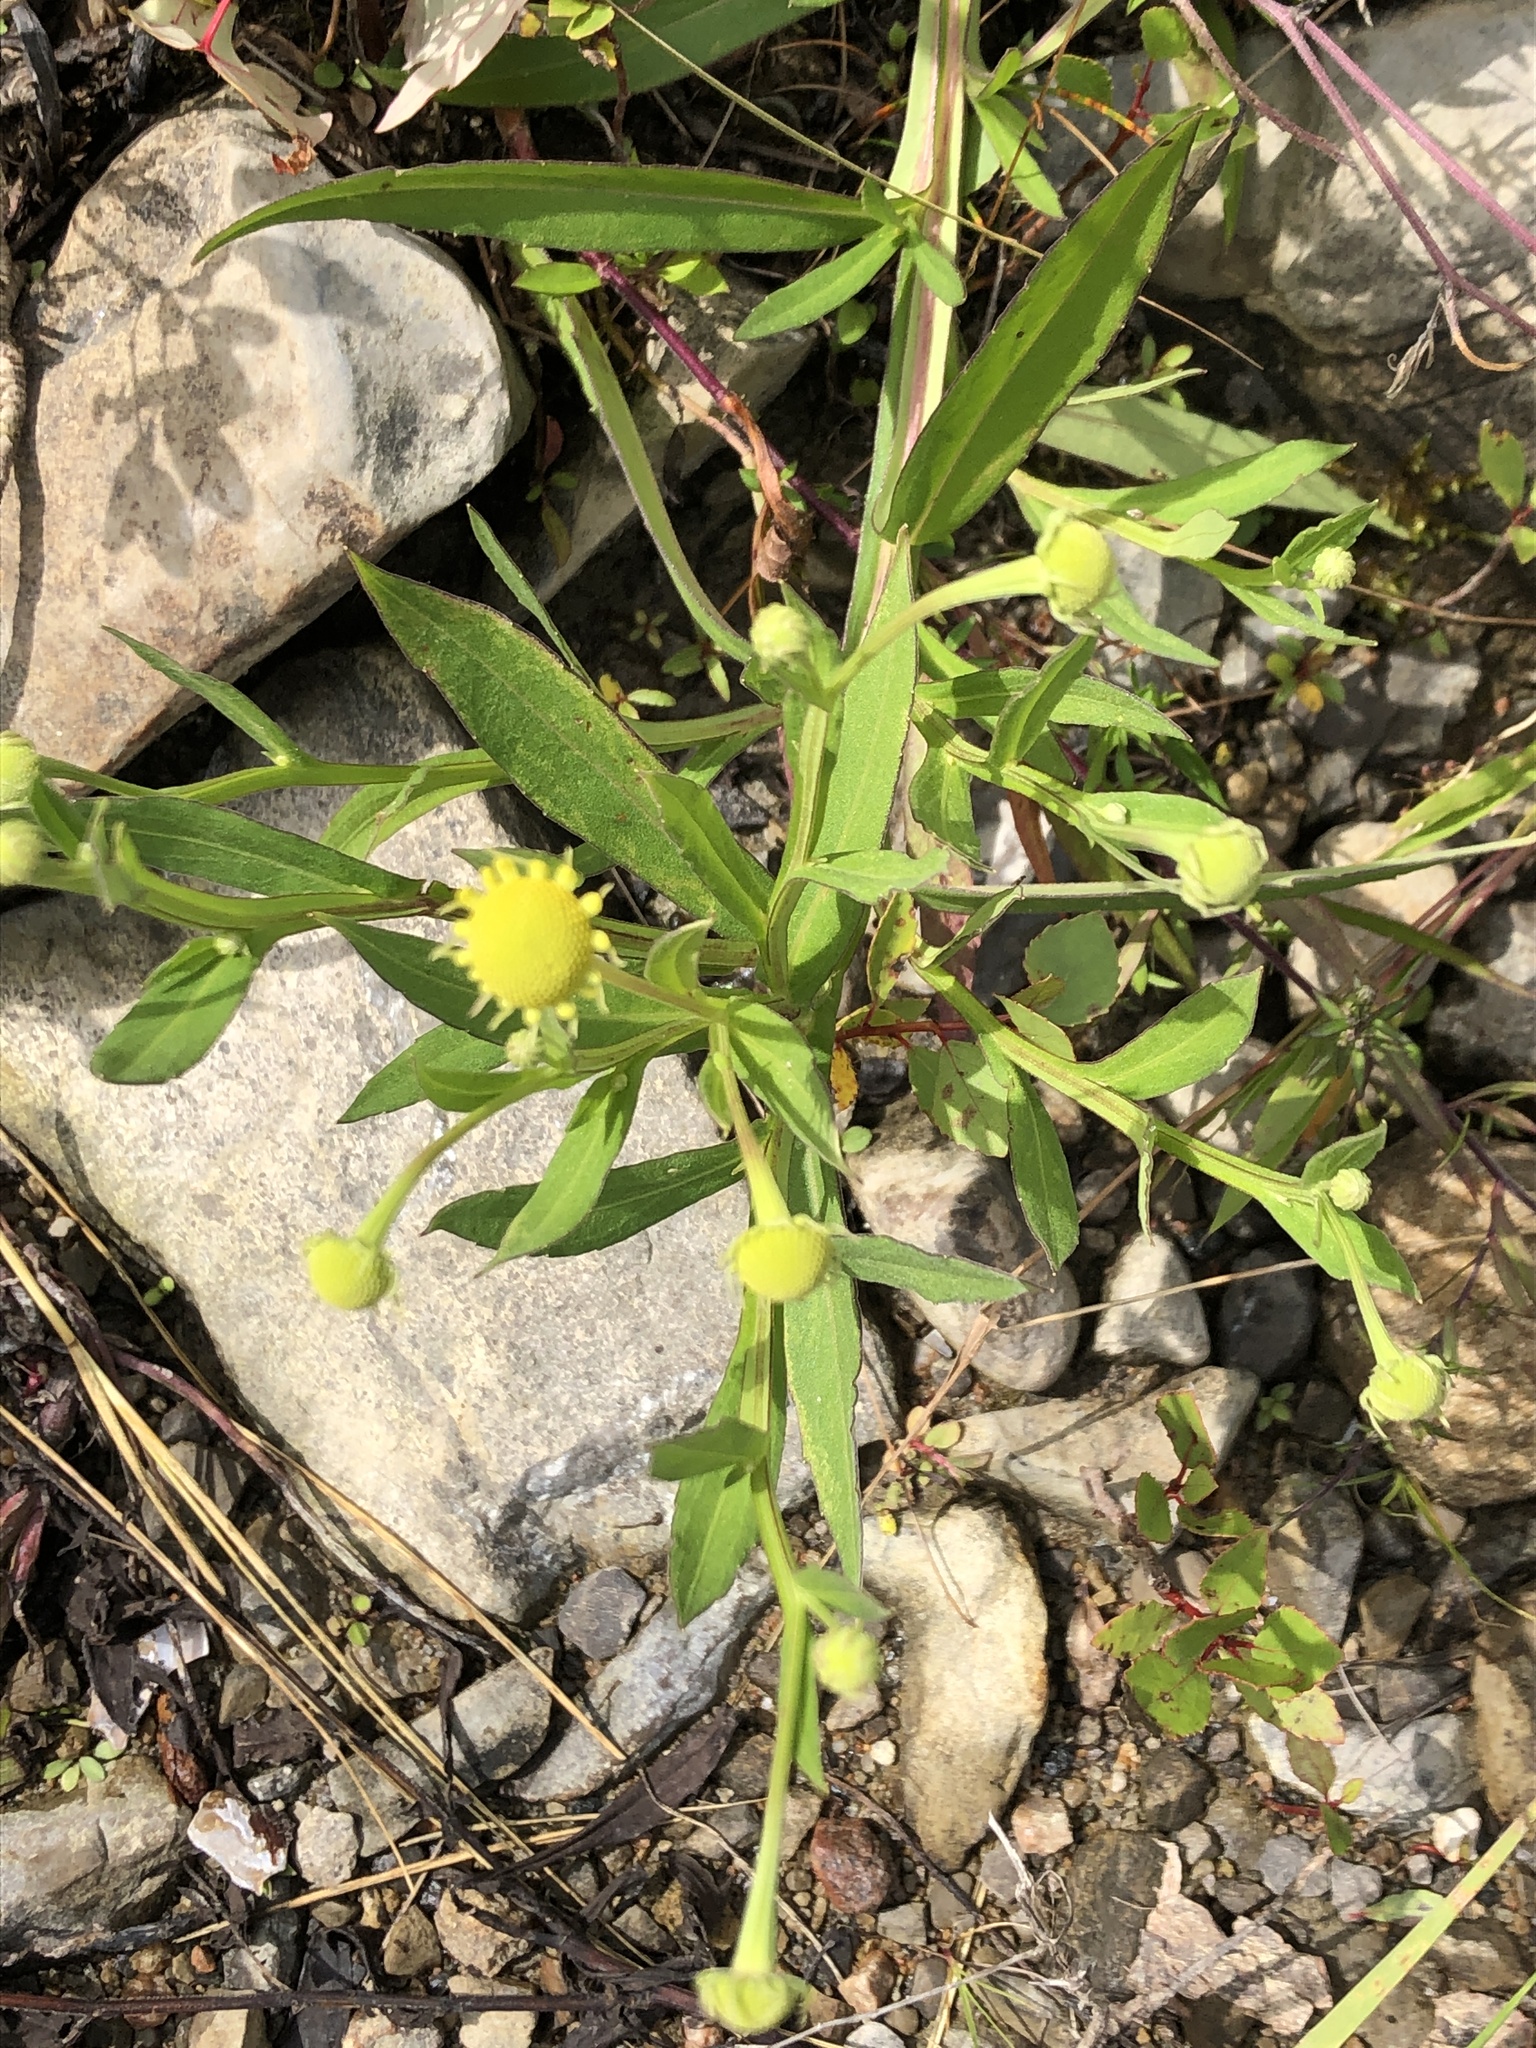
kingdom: Plantae
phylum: Tracheophyta
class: Magnoliopsida
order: Asterales
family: Asteraceae
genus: Helenium
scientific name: Helenium autumnale
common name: Sneezeweed
